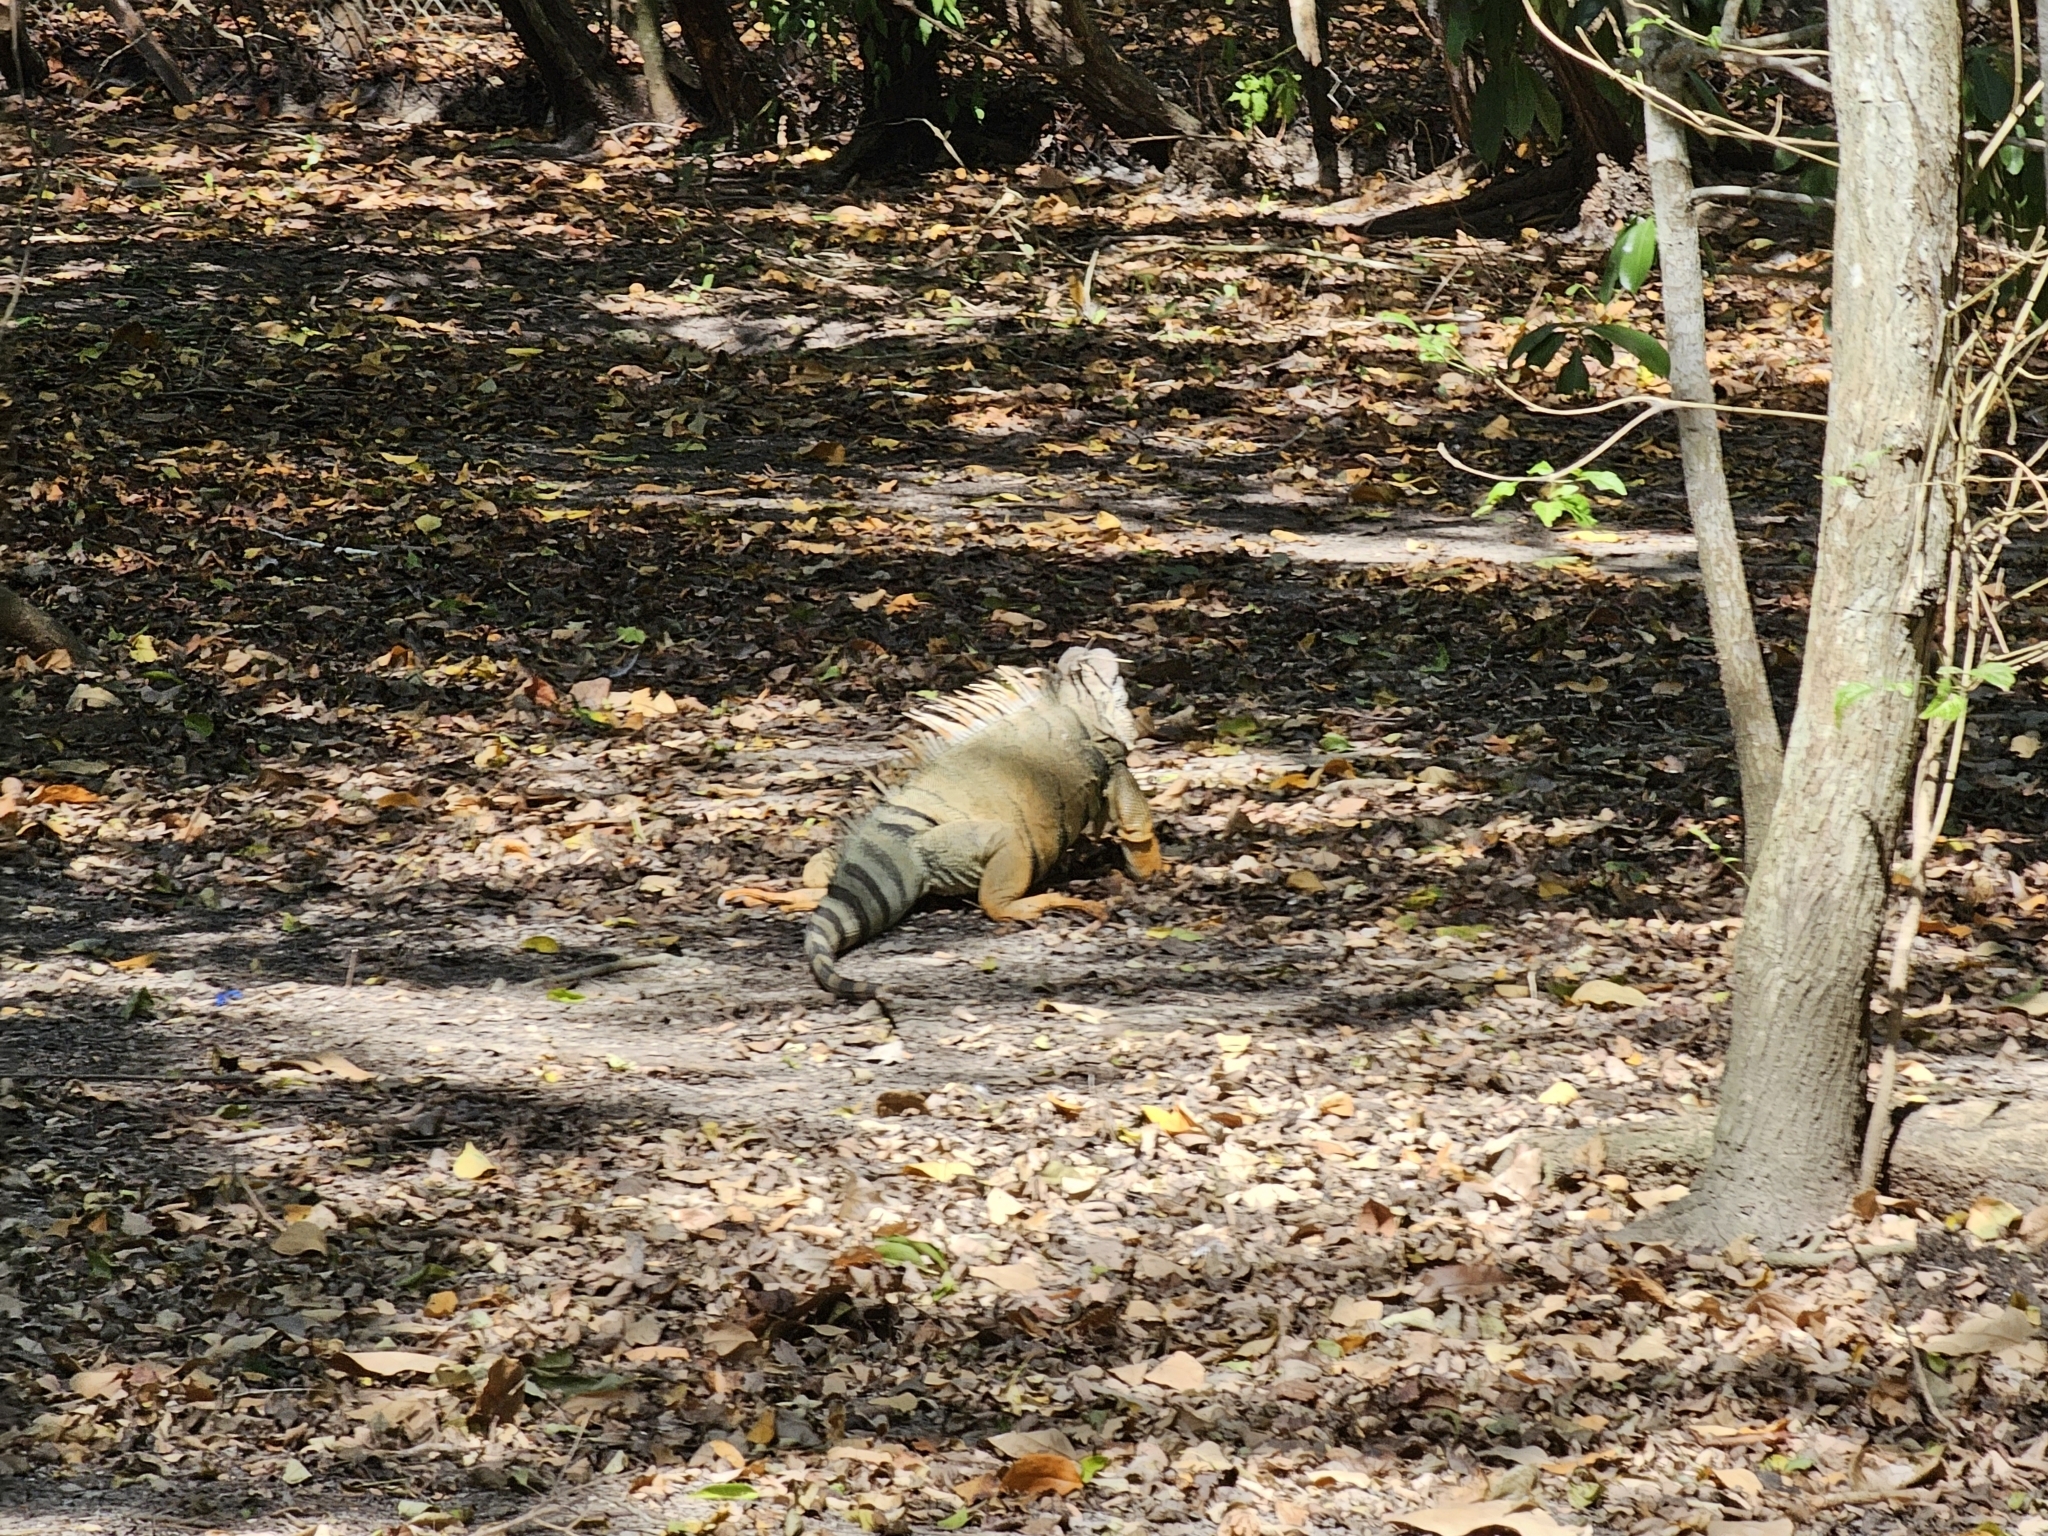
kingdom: Animalia
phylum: Chordata
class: Squamata
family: Iguanidae
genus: Iguana
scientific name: Iguana iguana
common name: Green iguana
